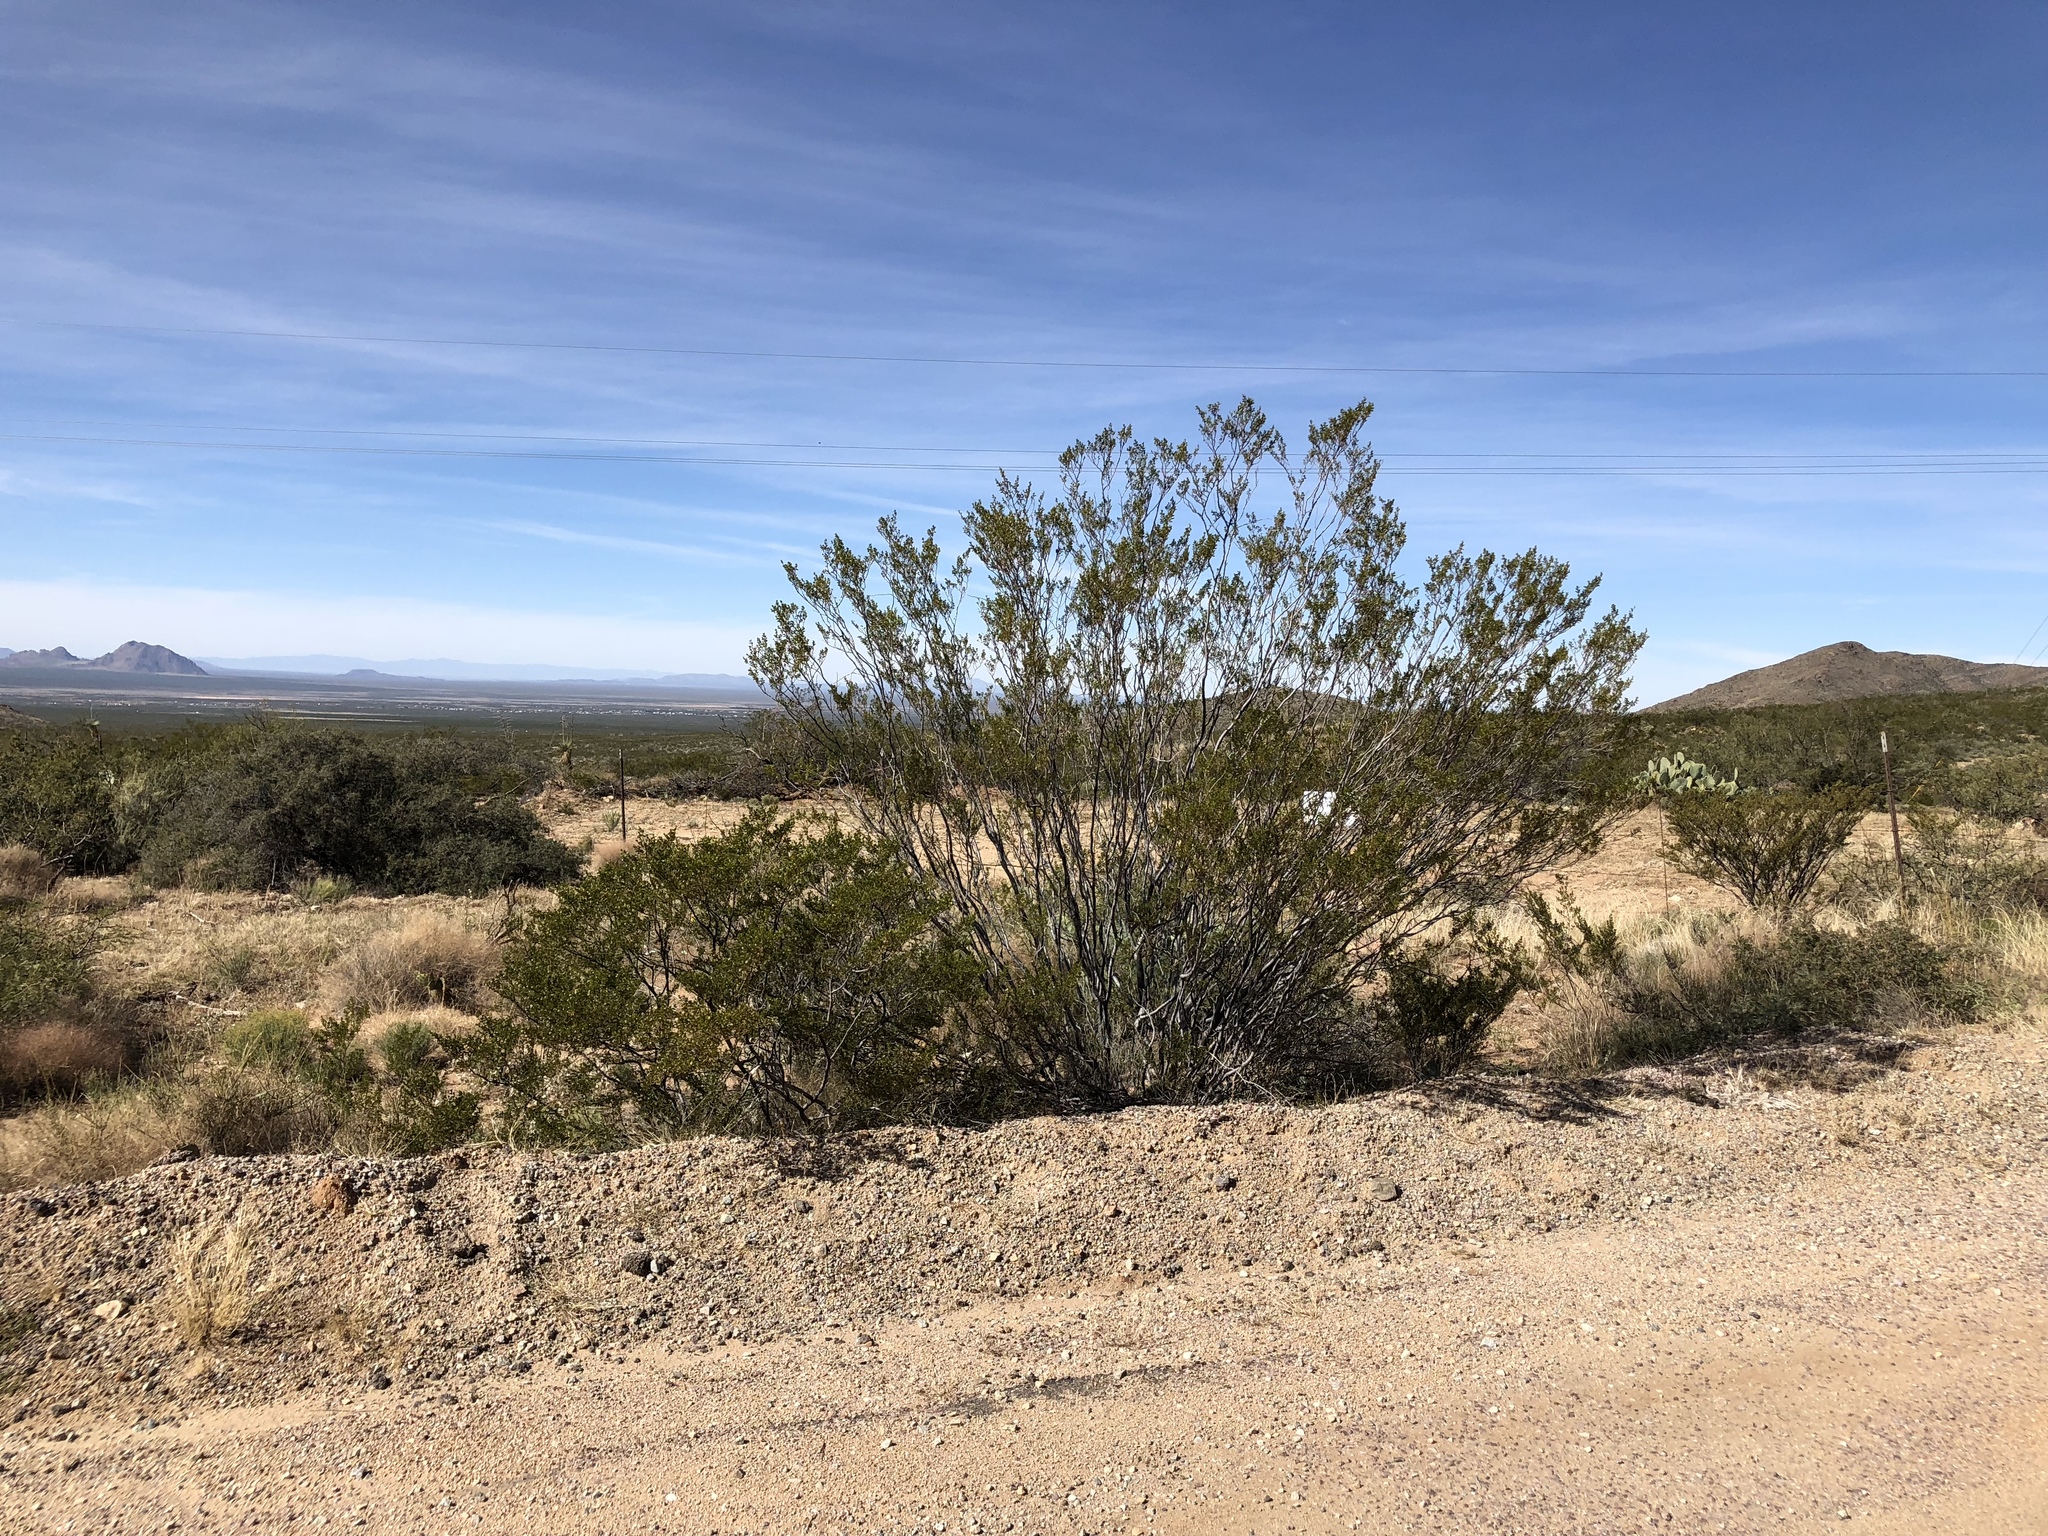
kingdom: Plantae
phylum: Tracheophyta
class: Magnoliopsida
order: Zygophyllales
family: Zygophyllaceae
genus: Larrea
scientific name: Larrea tridentata
